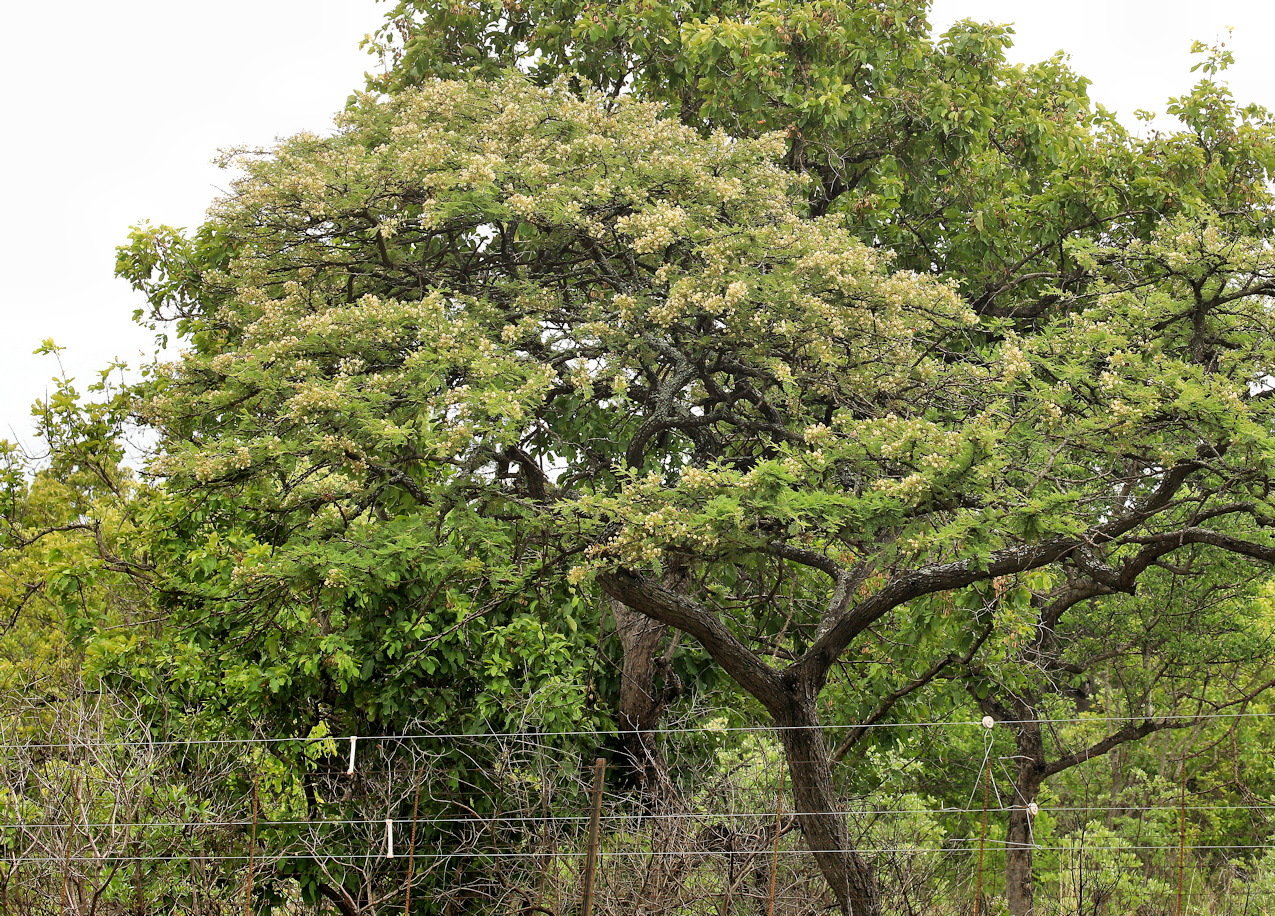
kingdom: Plantae
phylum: Tracheophyta
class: Magnoliopsida
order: Fabales
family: Fabaceae
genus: Vachellia
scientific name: Vachellia gerrardii
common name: Redthorn
